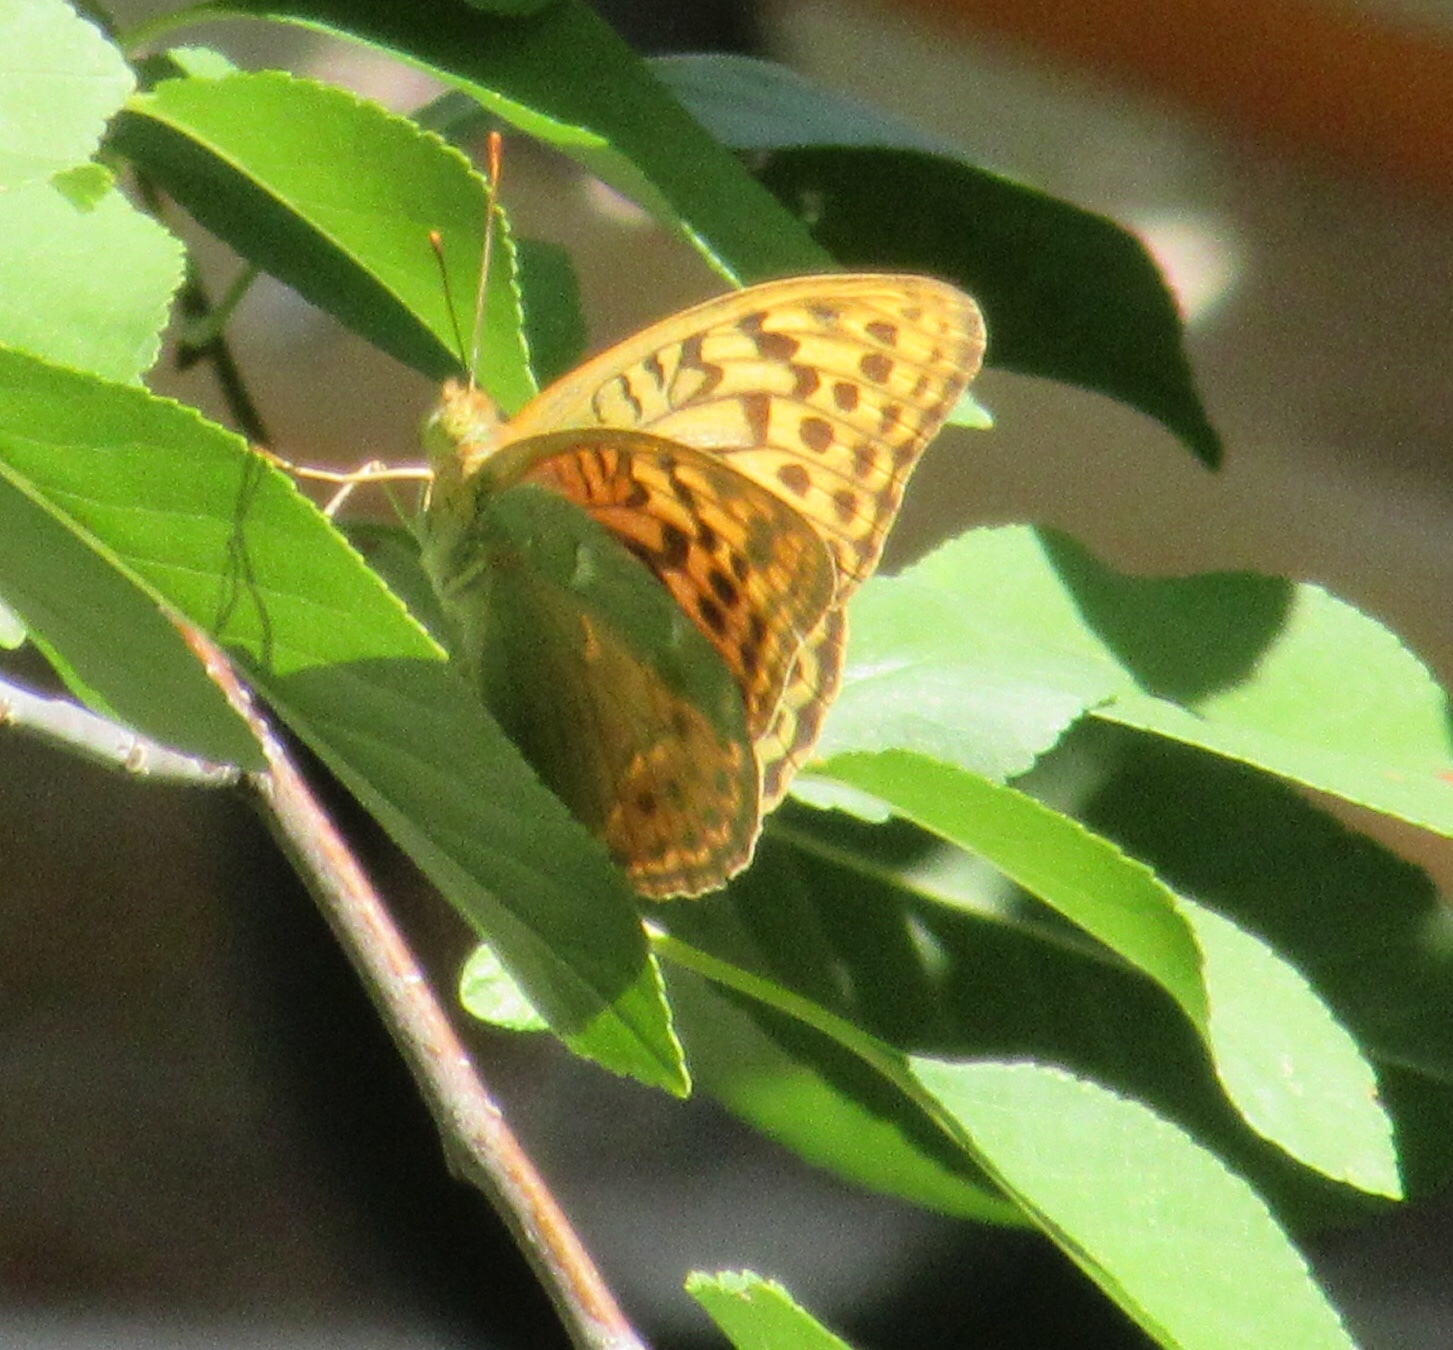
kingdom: Animalia
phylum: Arthropoda
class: Insecta
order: Lepidoptera
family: Nymphalidae
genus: Damora
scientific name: Damora pandora
